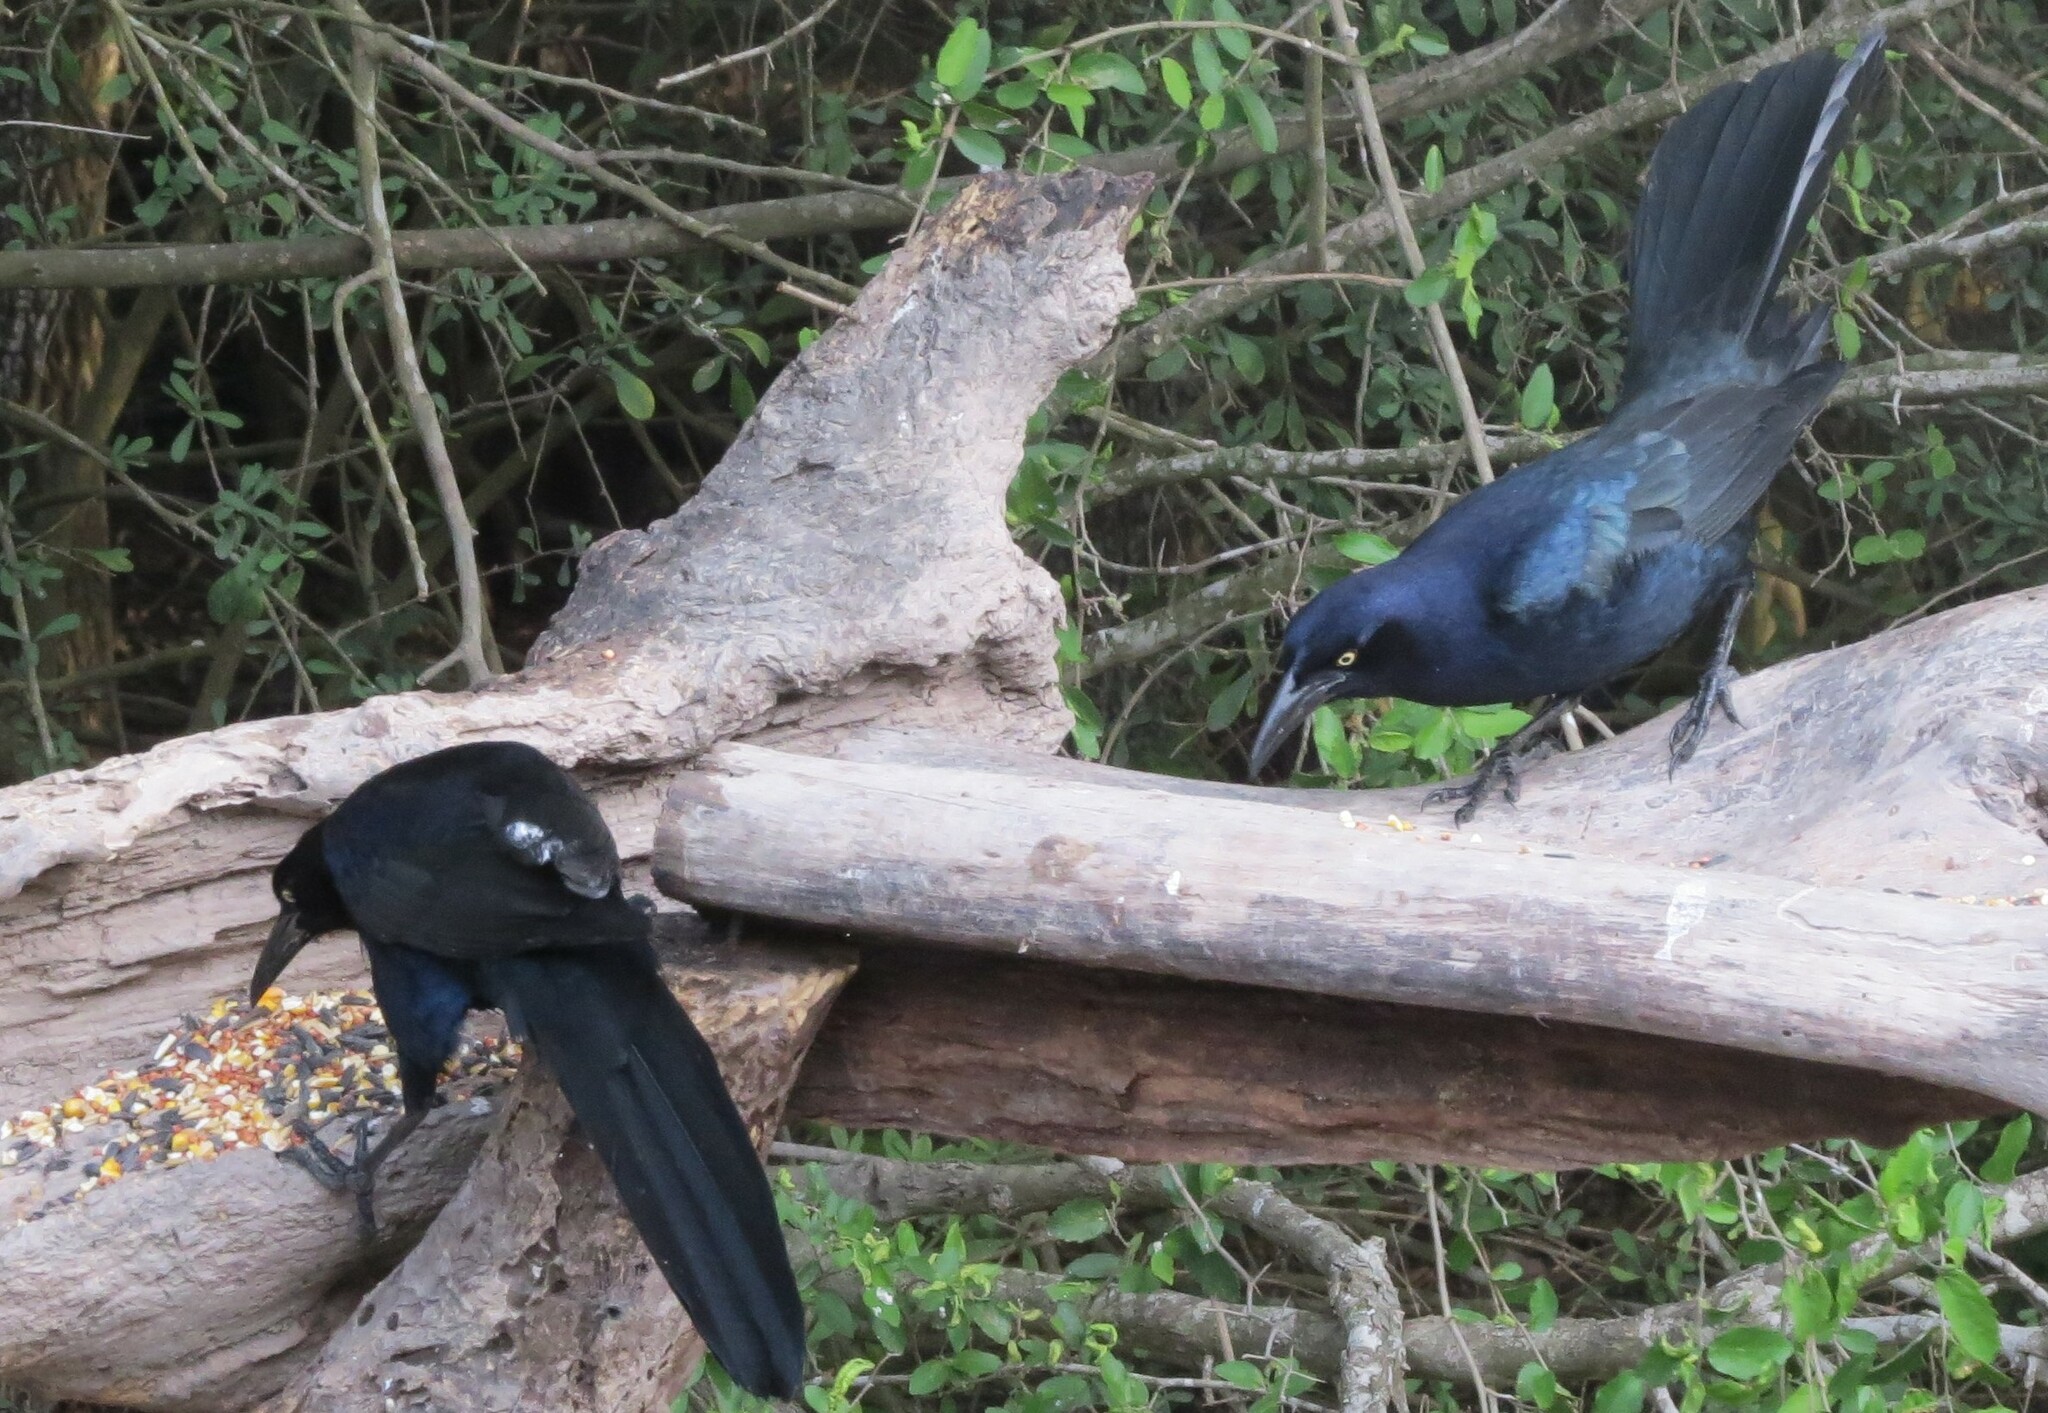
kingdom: Animalia
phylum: Chordata
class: Aves
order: Passeriformes
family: Icteridae
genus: Quiscalus
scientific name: Quiscalus mexicanus
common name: Great-tailed grackle
